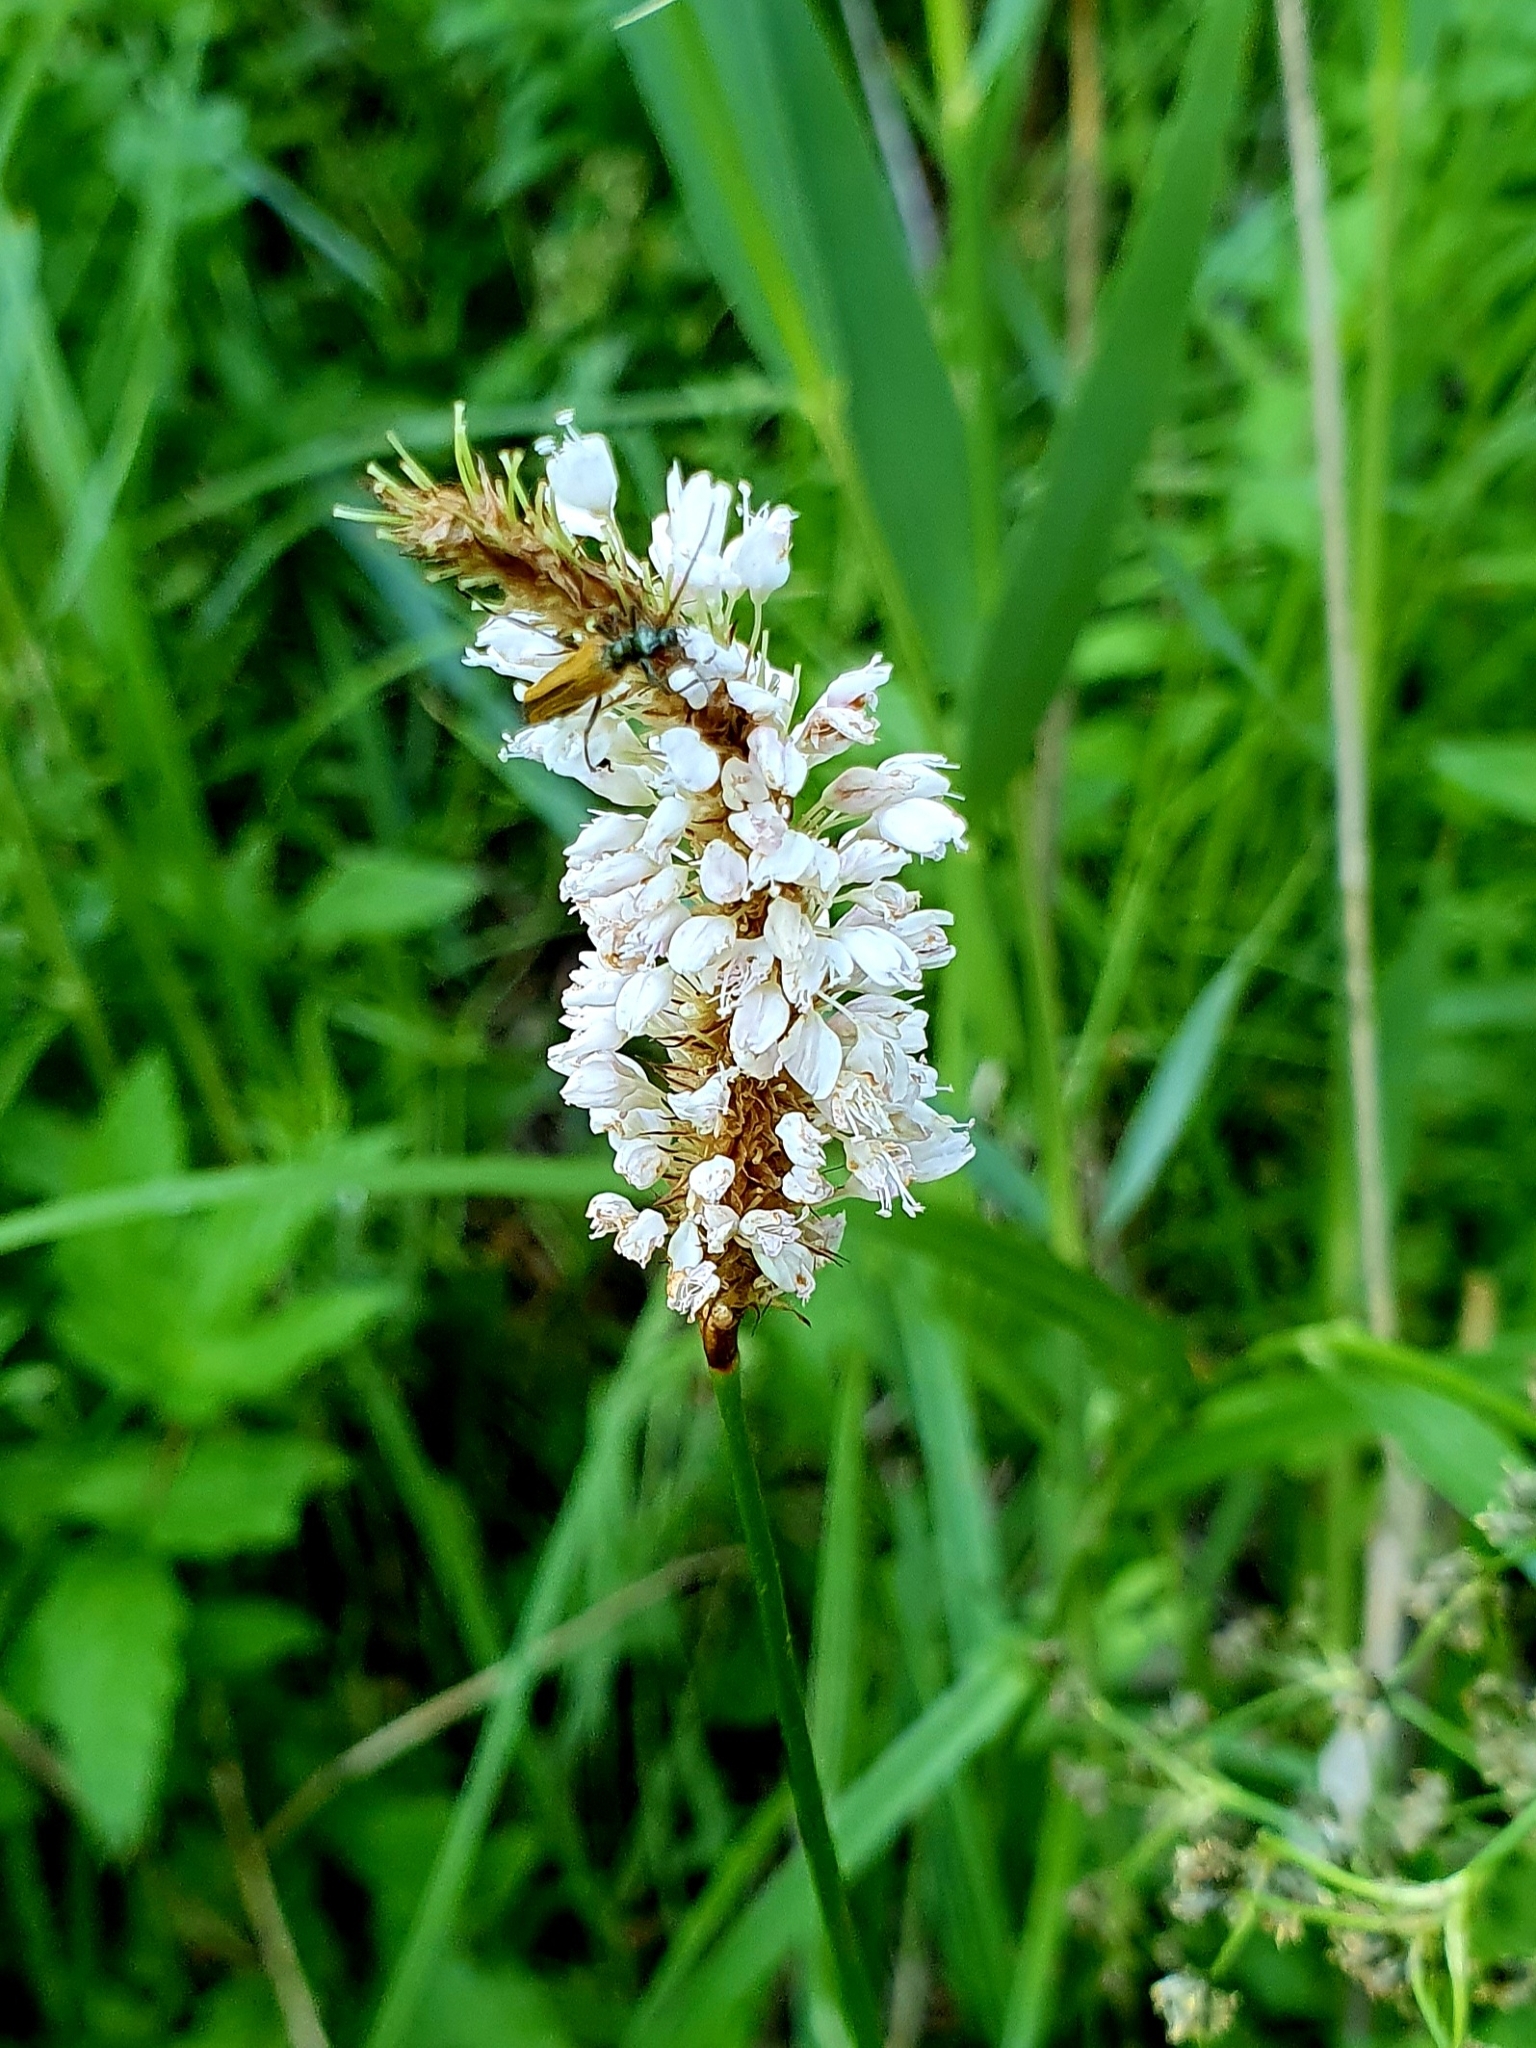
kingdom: Plantae
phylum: Tracheophyta
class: Magnoliopsida
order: Caryophyllales
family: Polygonaceae
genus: Bistorta
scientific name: Bistorta officinalis
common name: Common bistort
